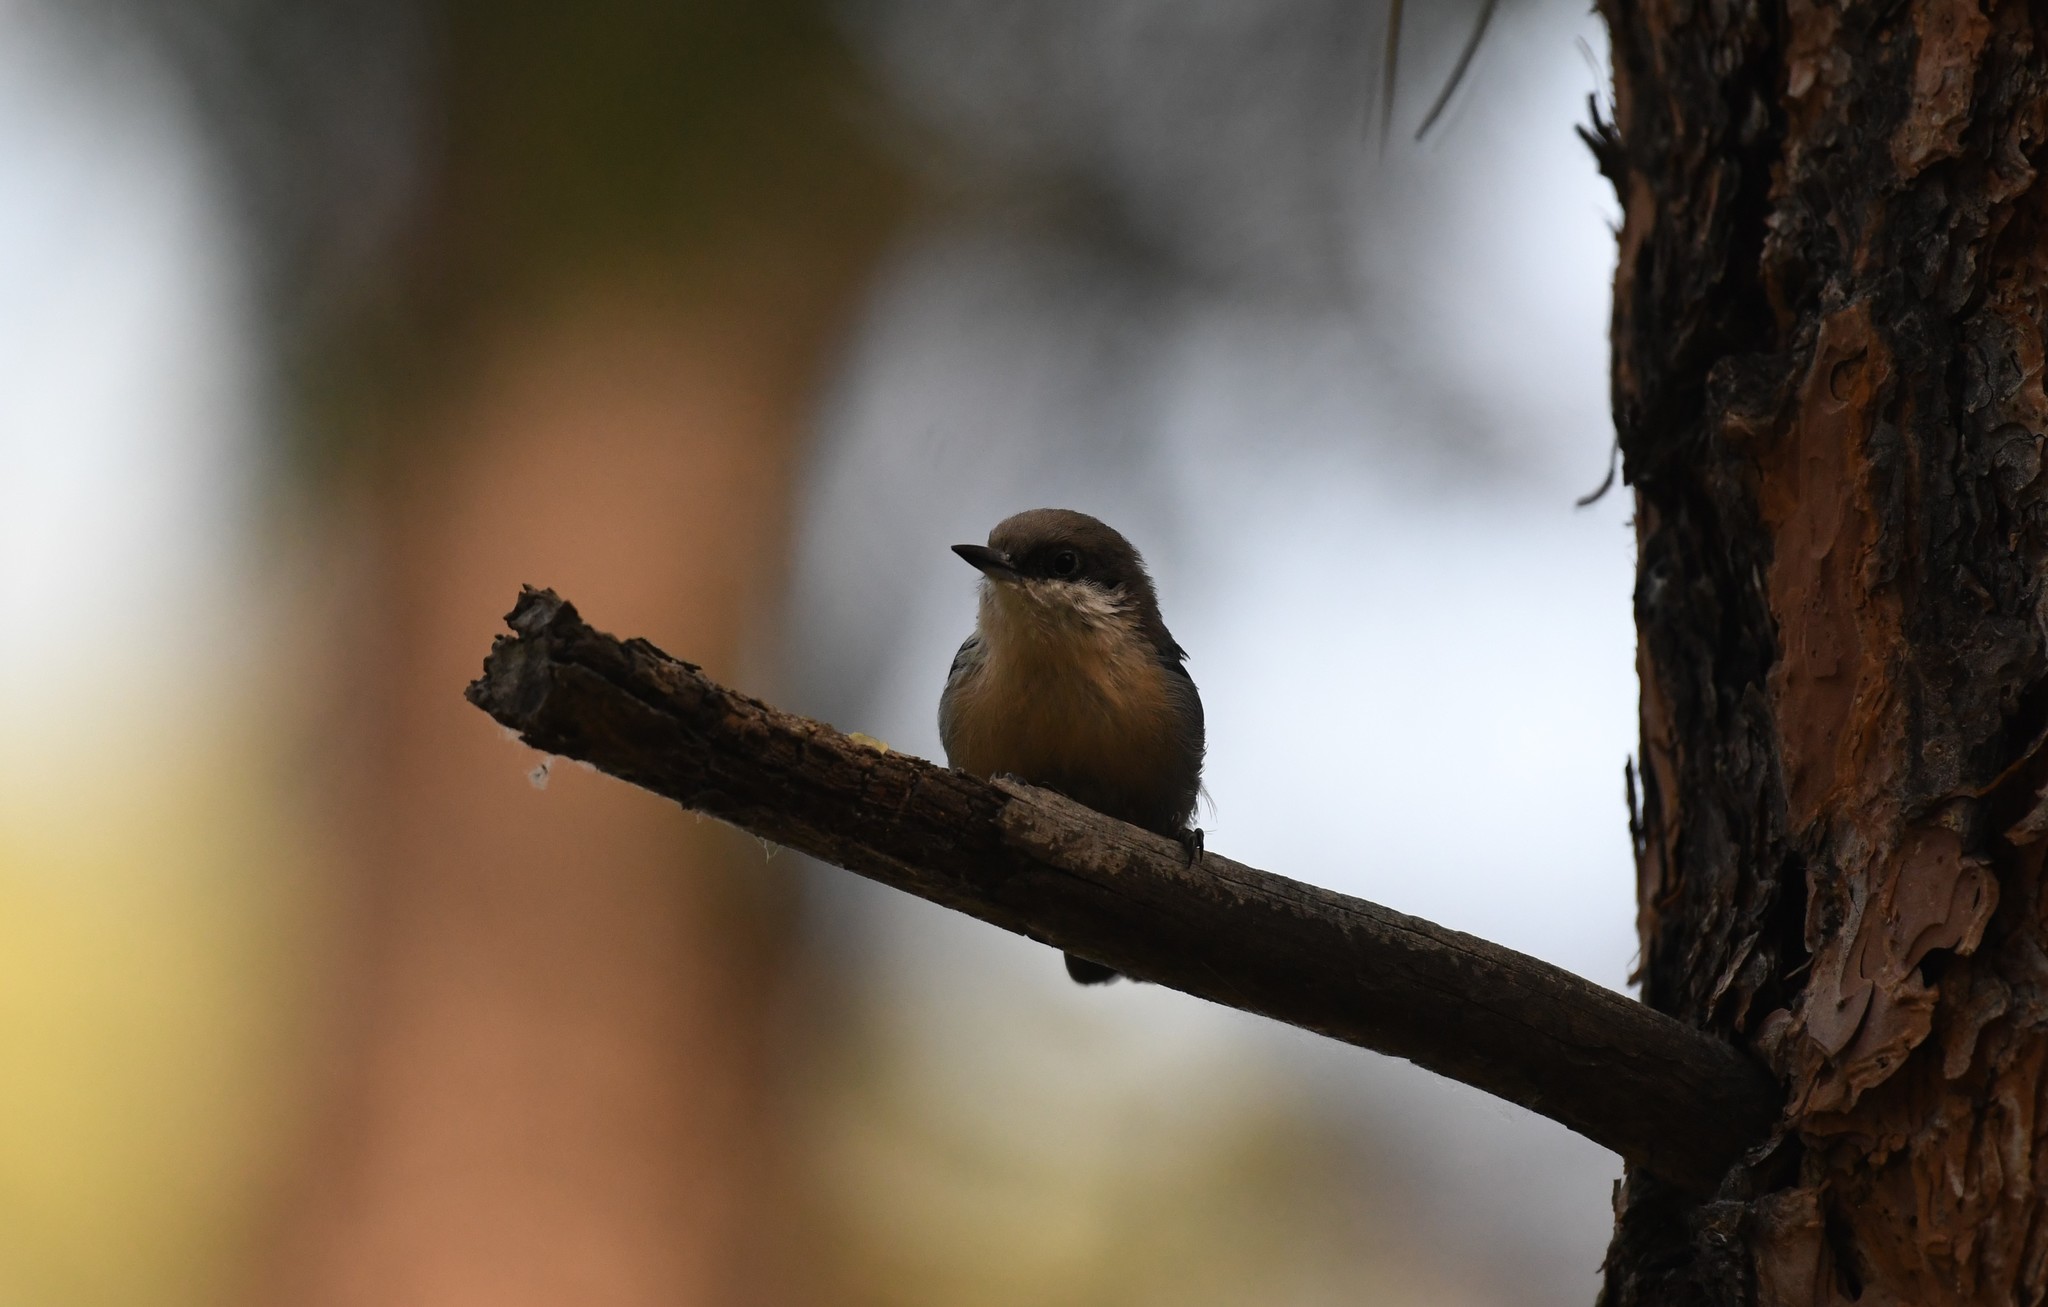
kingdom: Animalia
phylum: Chordata
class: Aves
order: Passeriformes
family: Sittidae
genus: Sitta
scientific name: Sitta pygmaea
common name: Pygmy nuthatch
